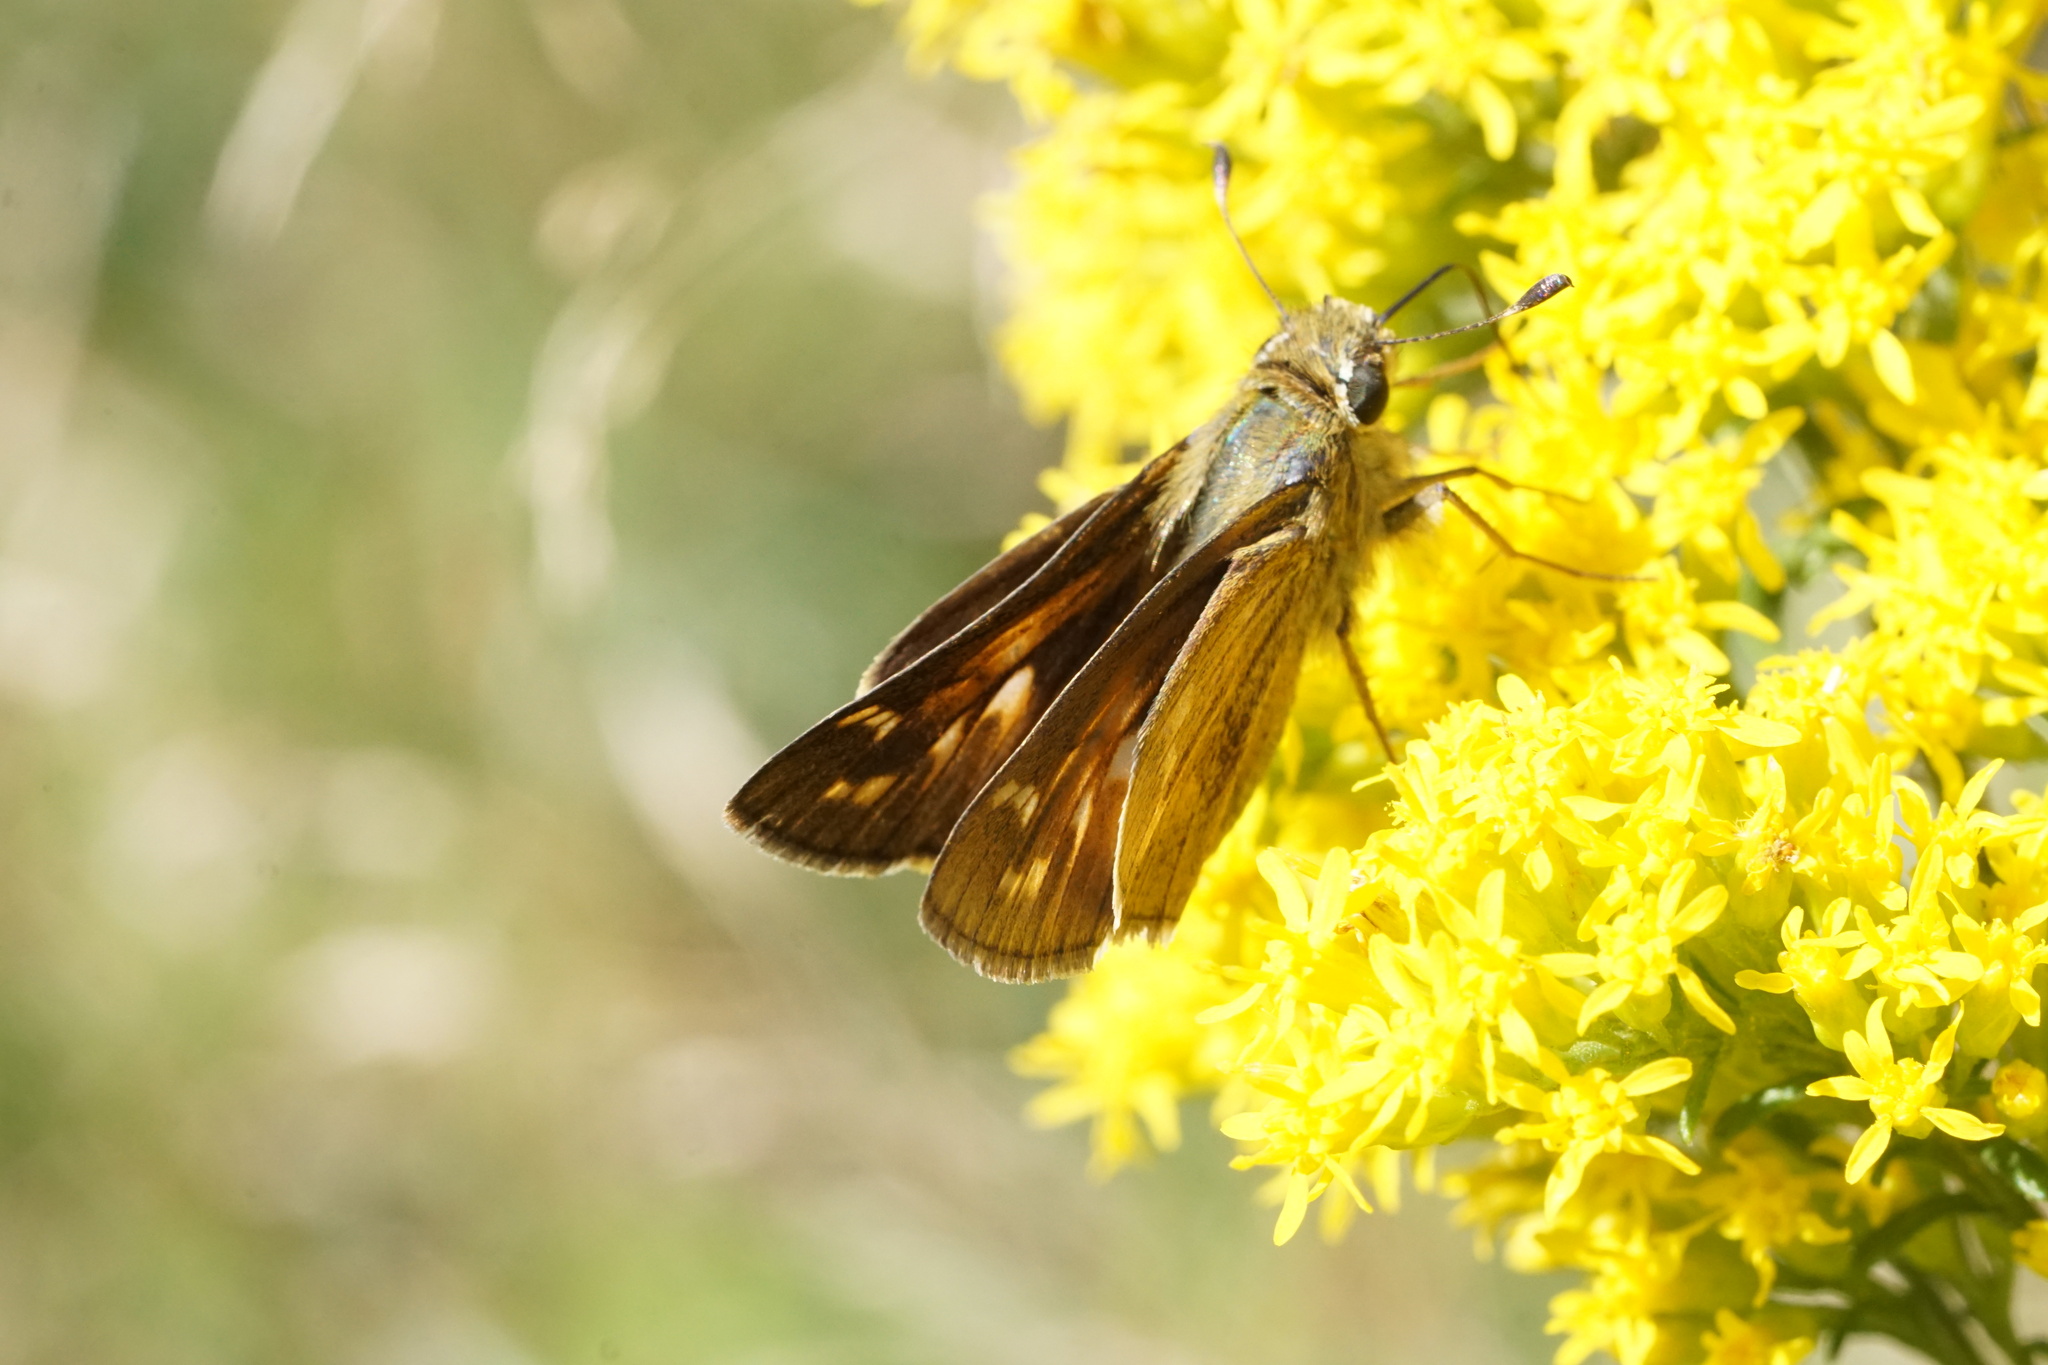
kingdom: Animalia
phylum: Arthropoda
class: Insecta
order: Lepidoptera
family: Hesperiidae
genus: Atalopedes
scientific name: Atalopedes
